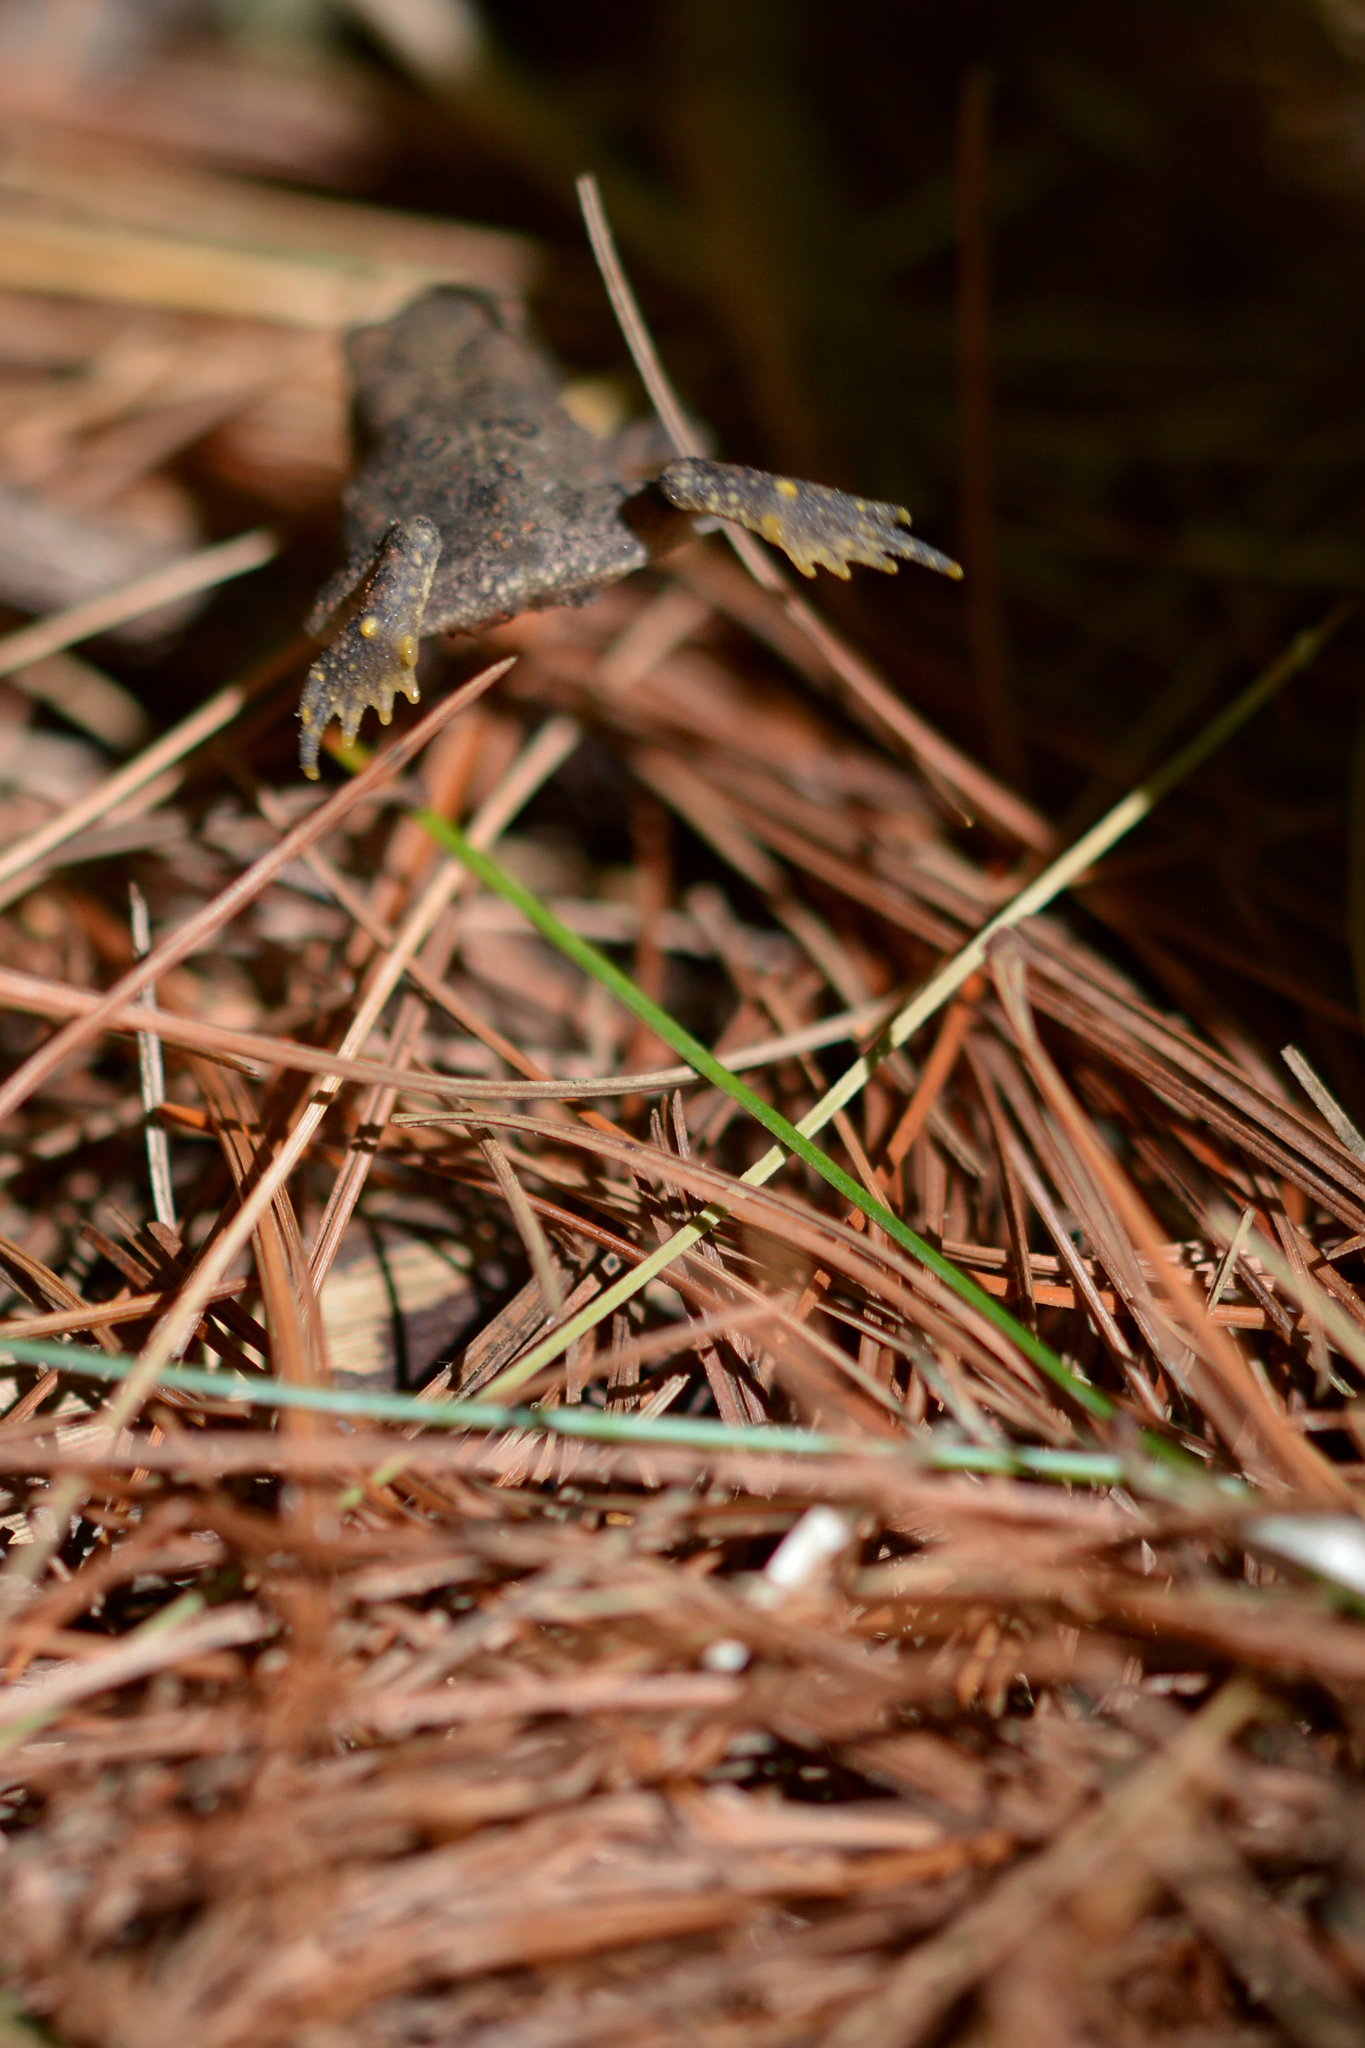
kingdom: Animalia
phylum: Chordata
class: Amphibia
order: Anura
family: Bufonidae
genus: Anaxyrus
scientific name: Anaxyrus americanus
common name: American toad
